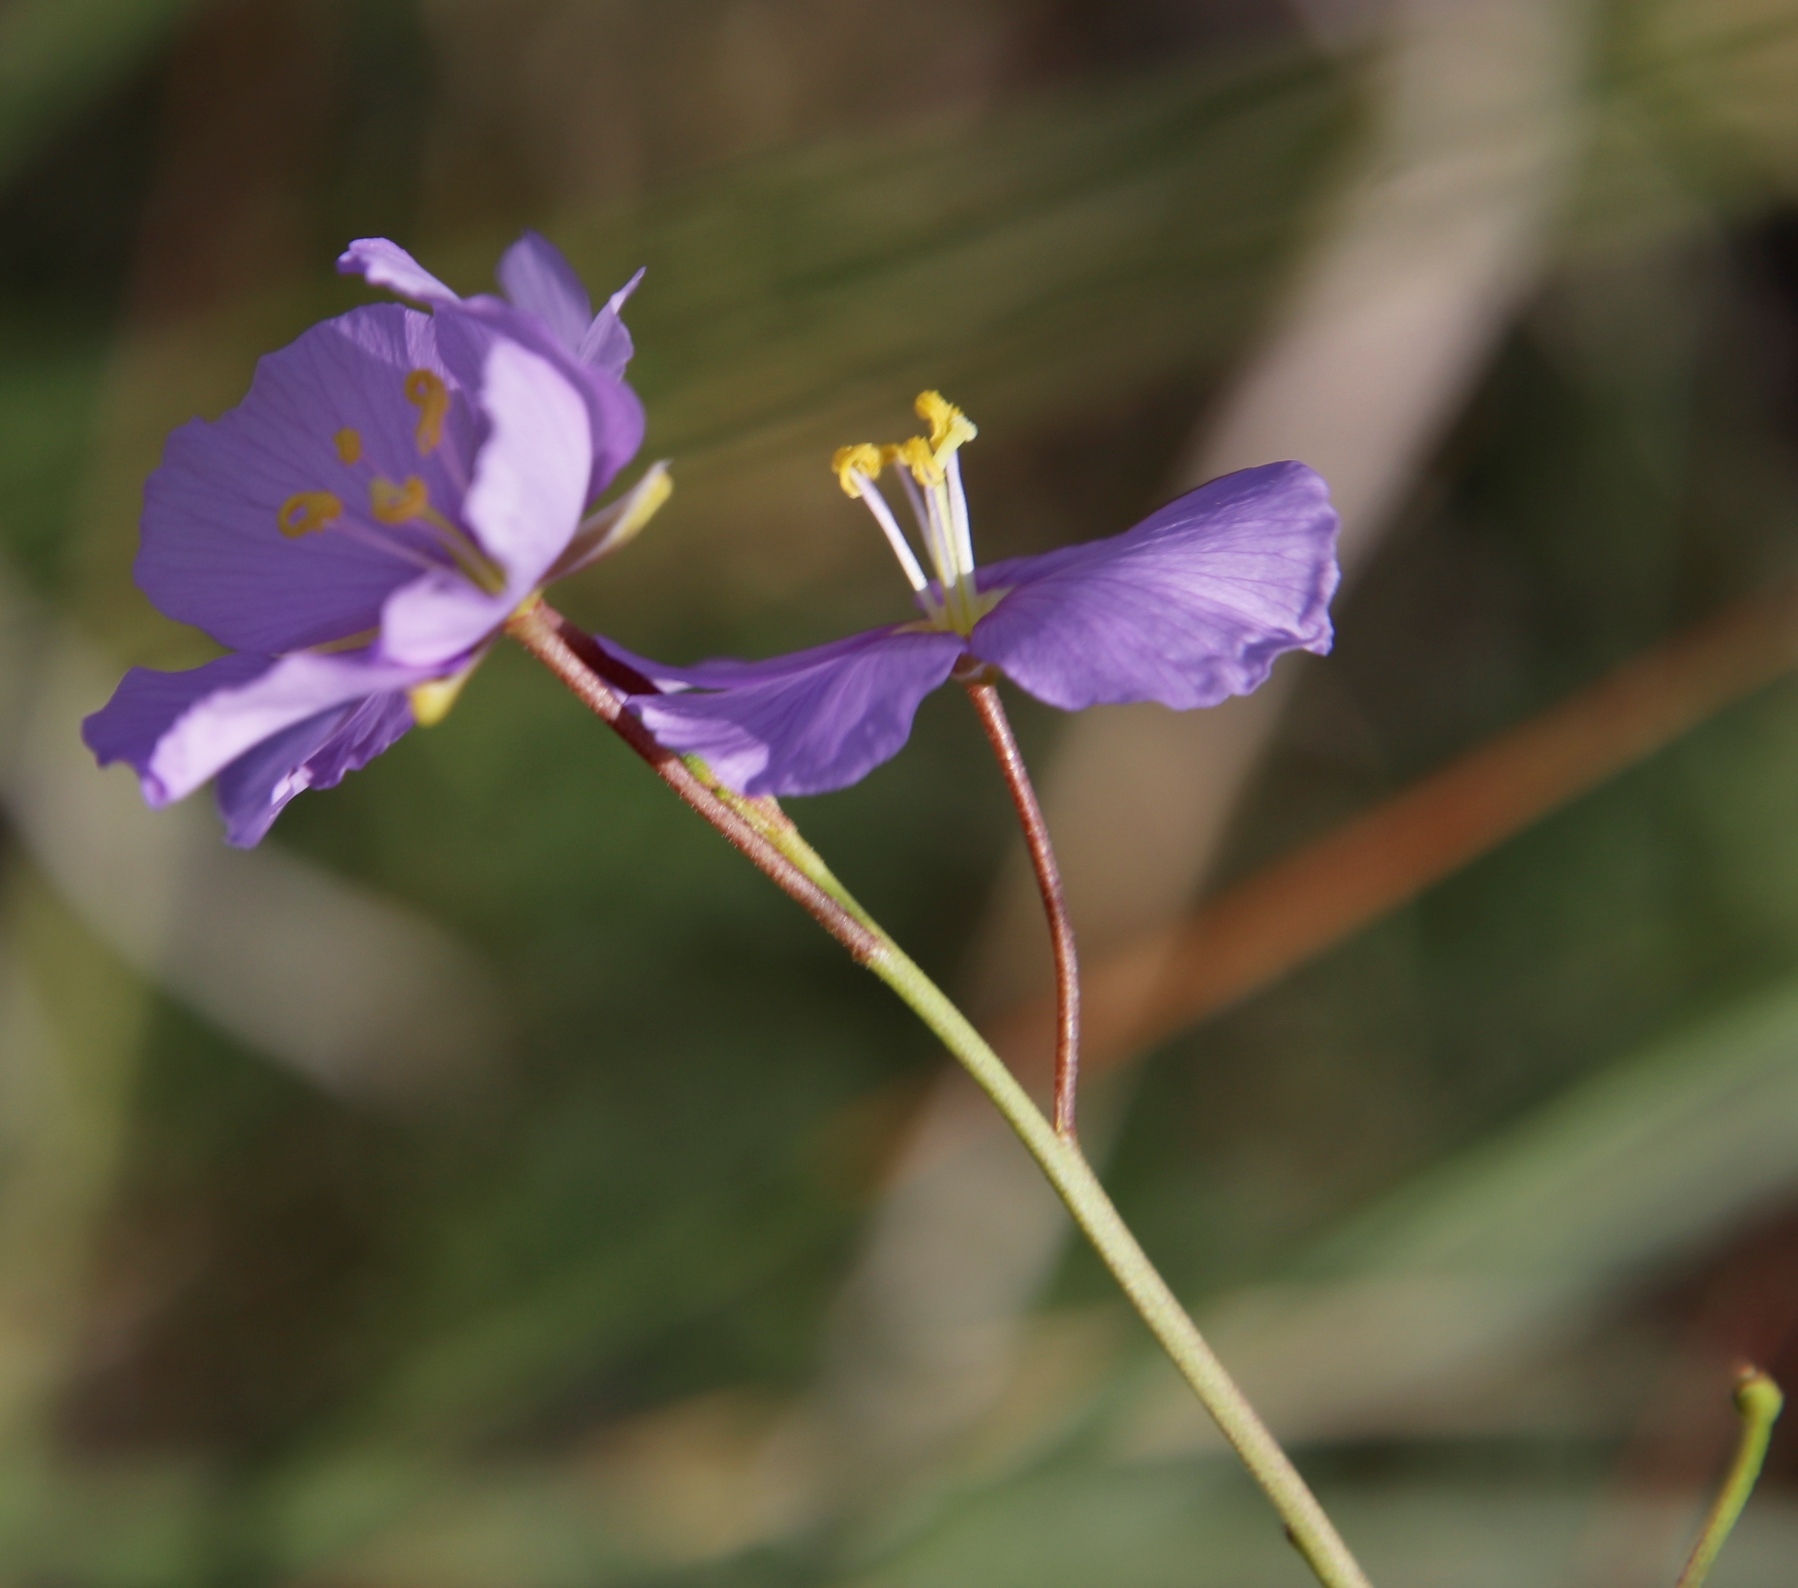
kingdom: Plantae
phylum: Tracheophyta
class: Magnoliopsida
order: Brassicales
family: Brassicaceae
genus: Heliophila
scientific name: Heliophila suavissima
